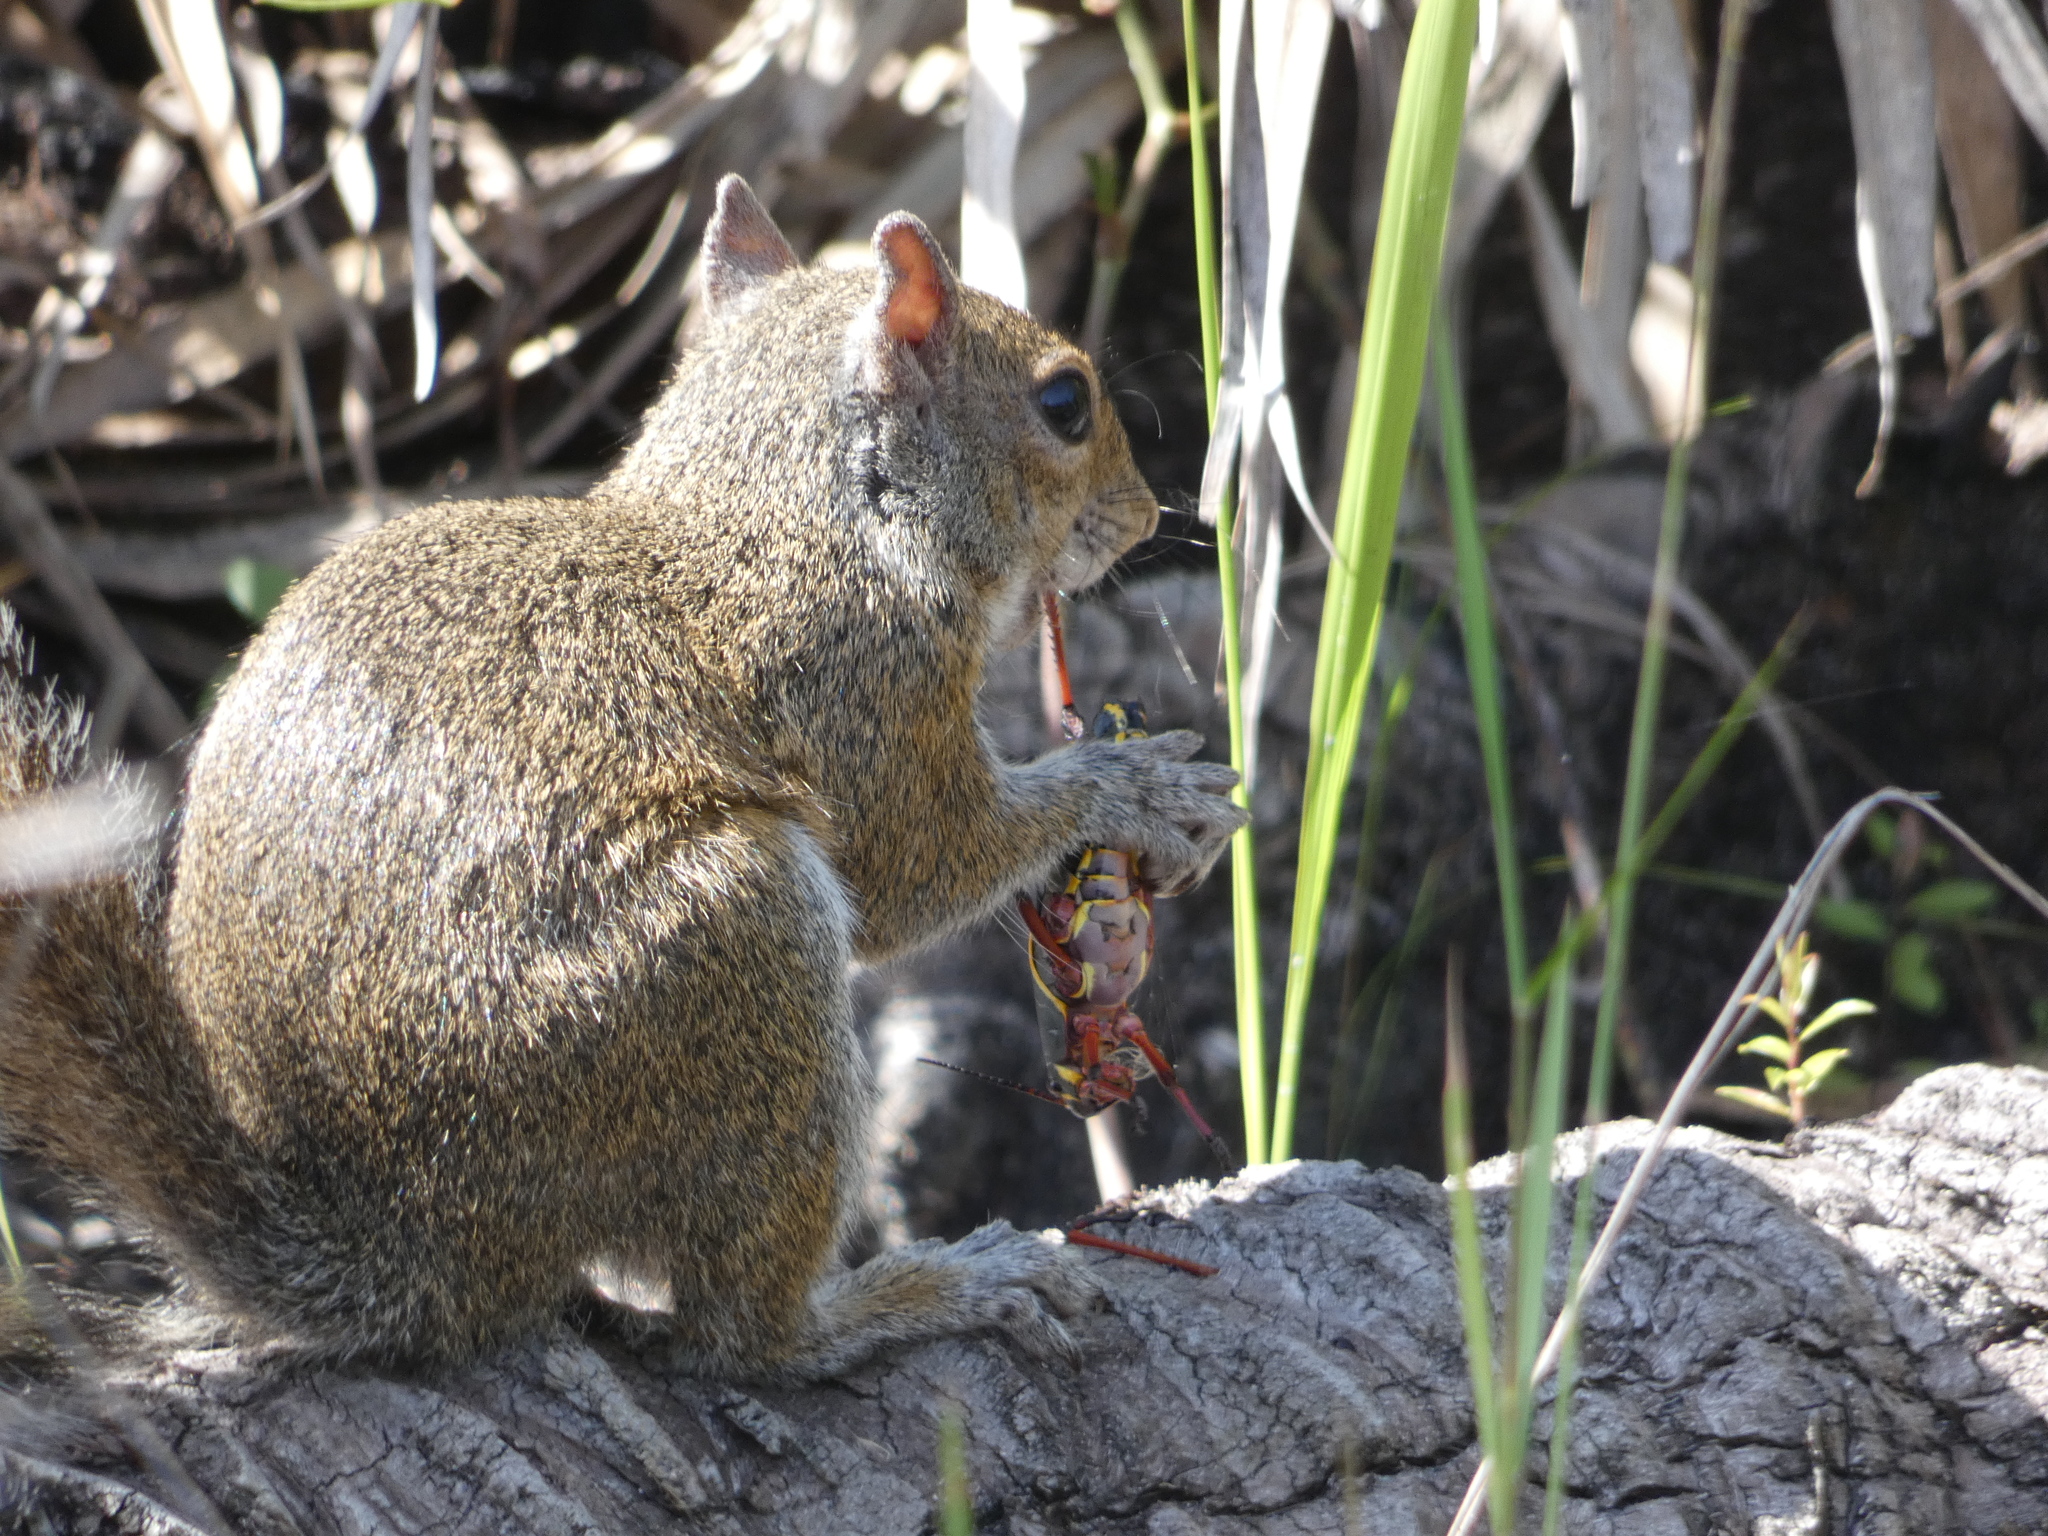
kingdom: Animalia
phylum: Chordata
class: Mammalia
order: Rodentia
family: Sciuridae
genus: Sciurus
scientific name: Sciurus carolinensis
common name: Eastern gray squirrel
